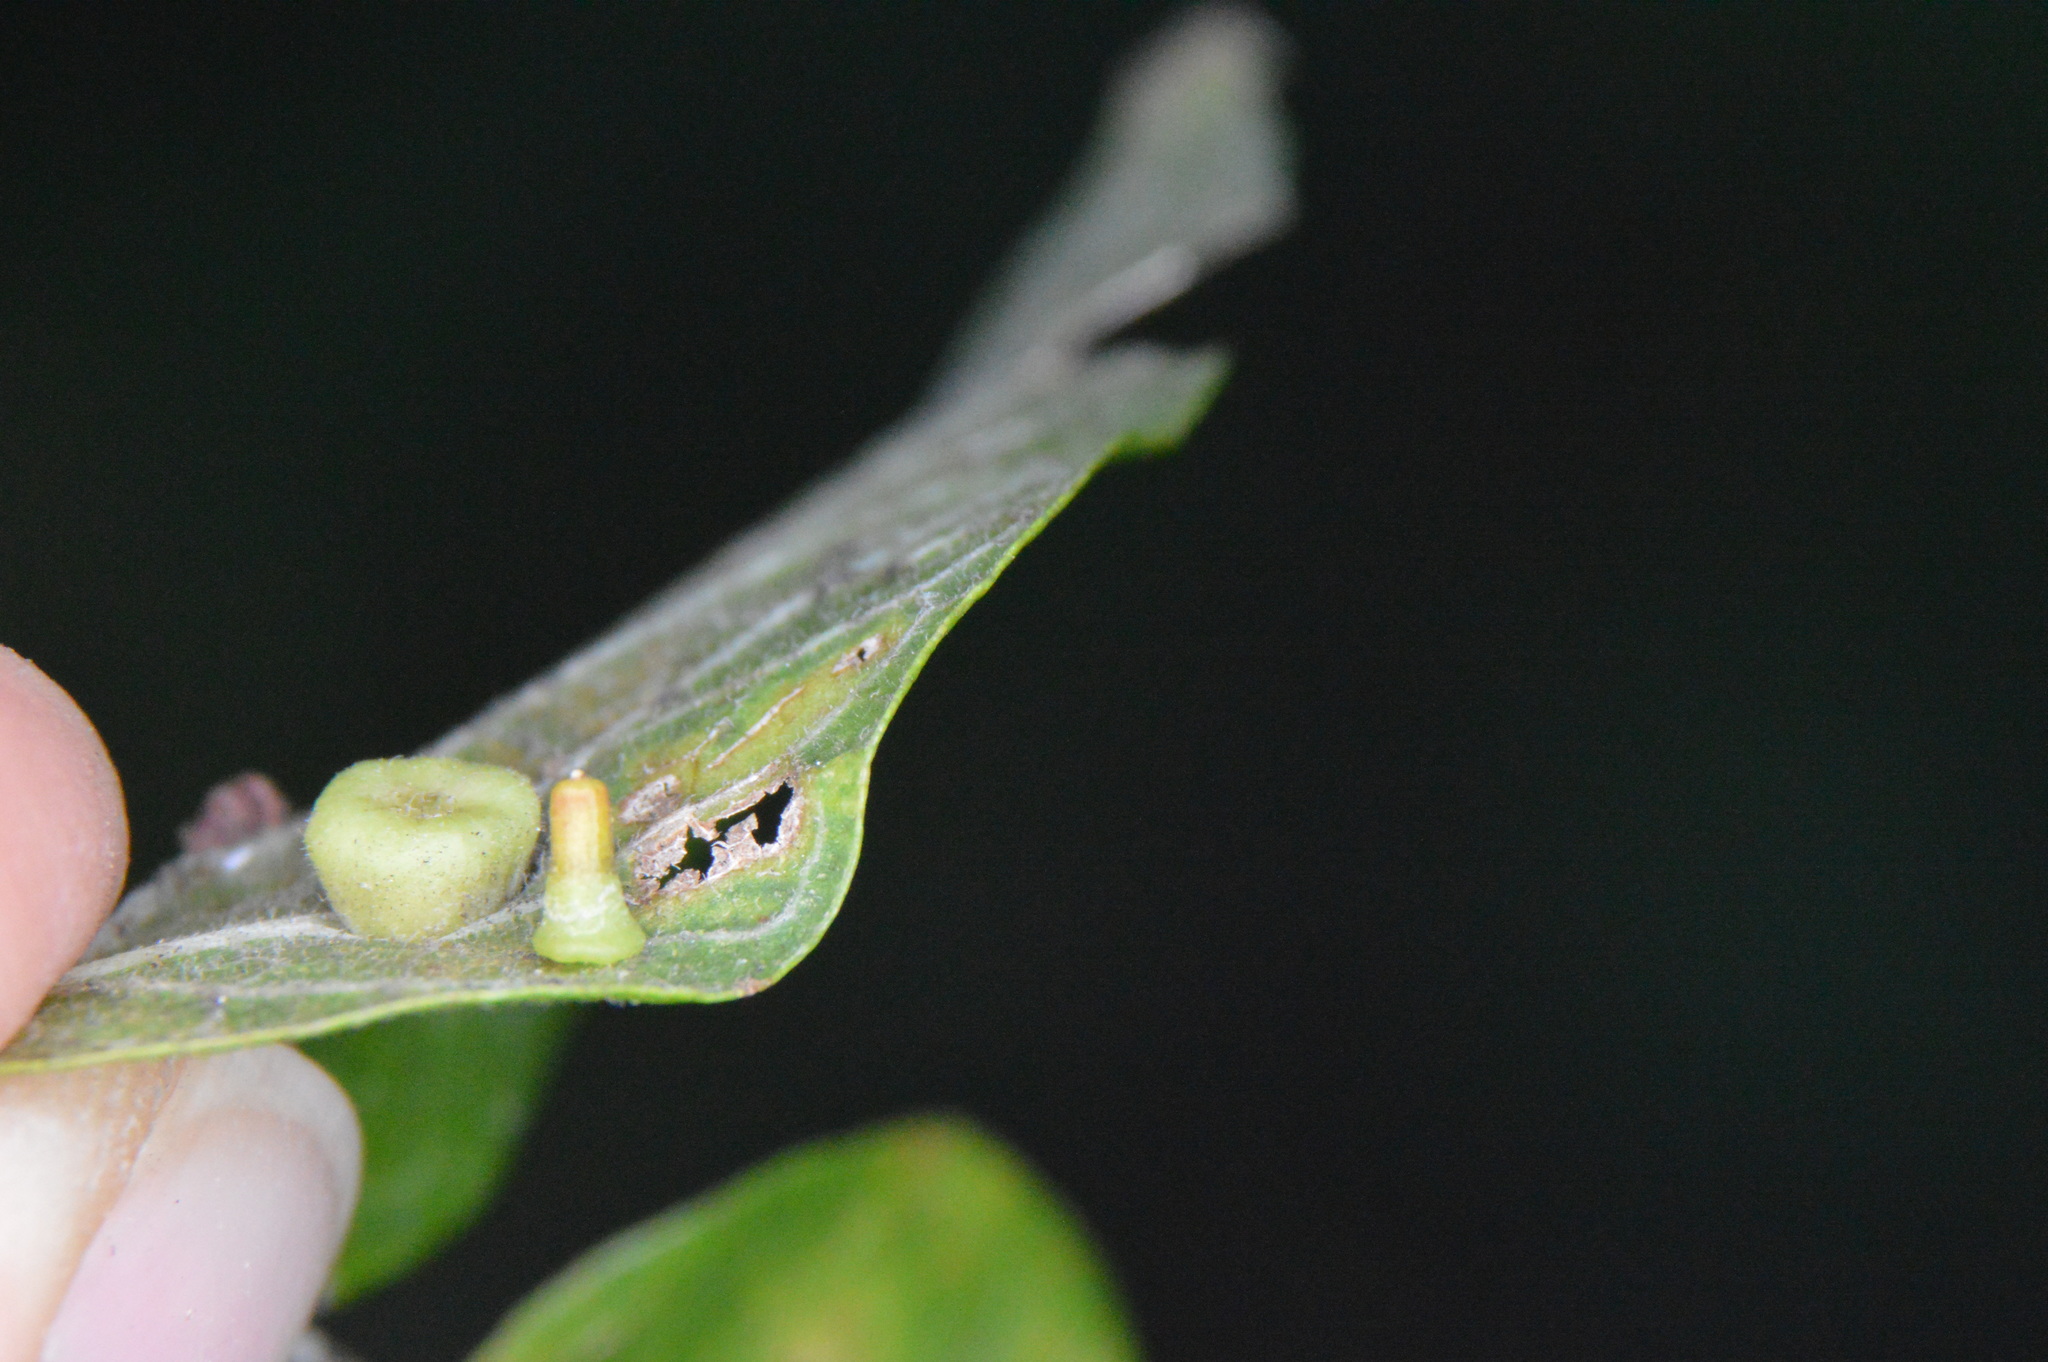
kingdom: Animalia
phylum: Arthropoda
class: Insecta
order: Diptera
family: Cecidomyiidae
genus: Celticecis
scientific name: Celticecis aciculata
